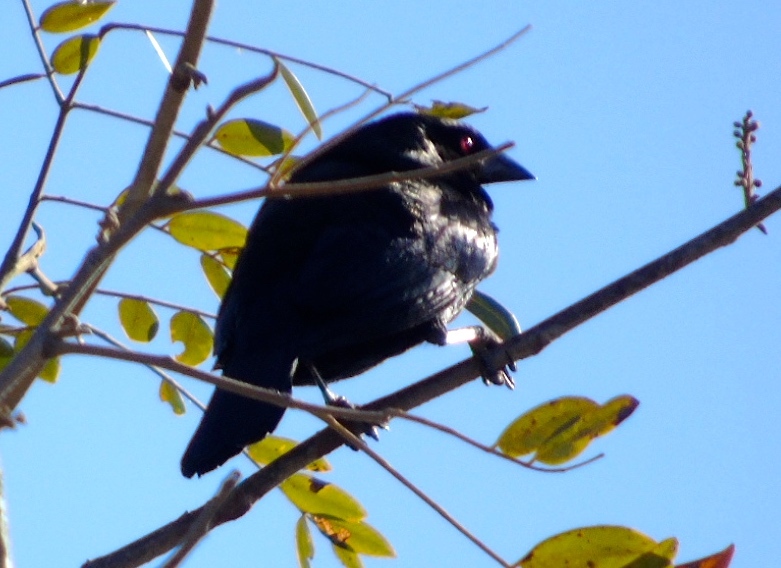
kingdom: Animalia
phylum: Chordata
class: Aves
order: Passeriformes
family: Icteridae
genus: Molothrus
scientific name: Molothrus aeneus
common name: Bronzed cowbird
